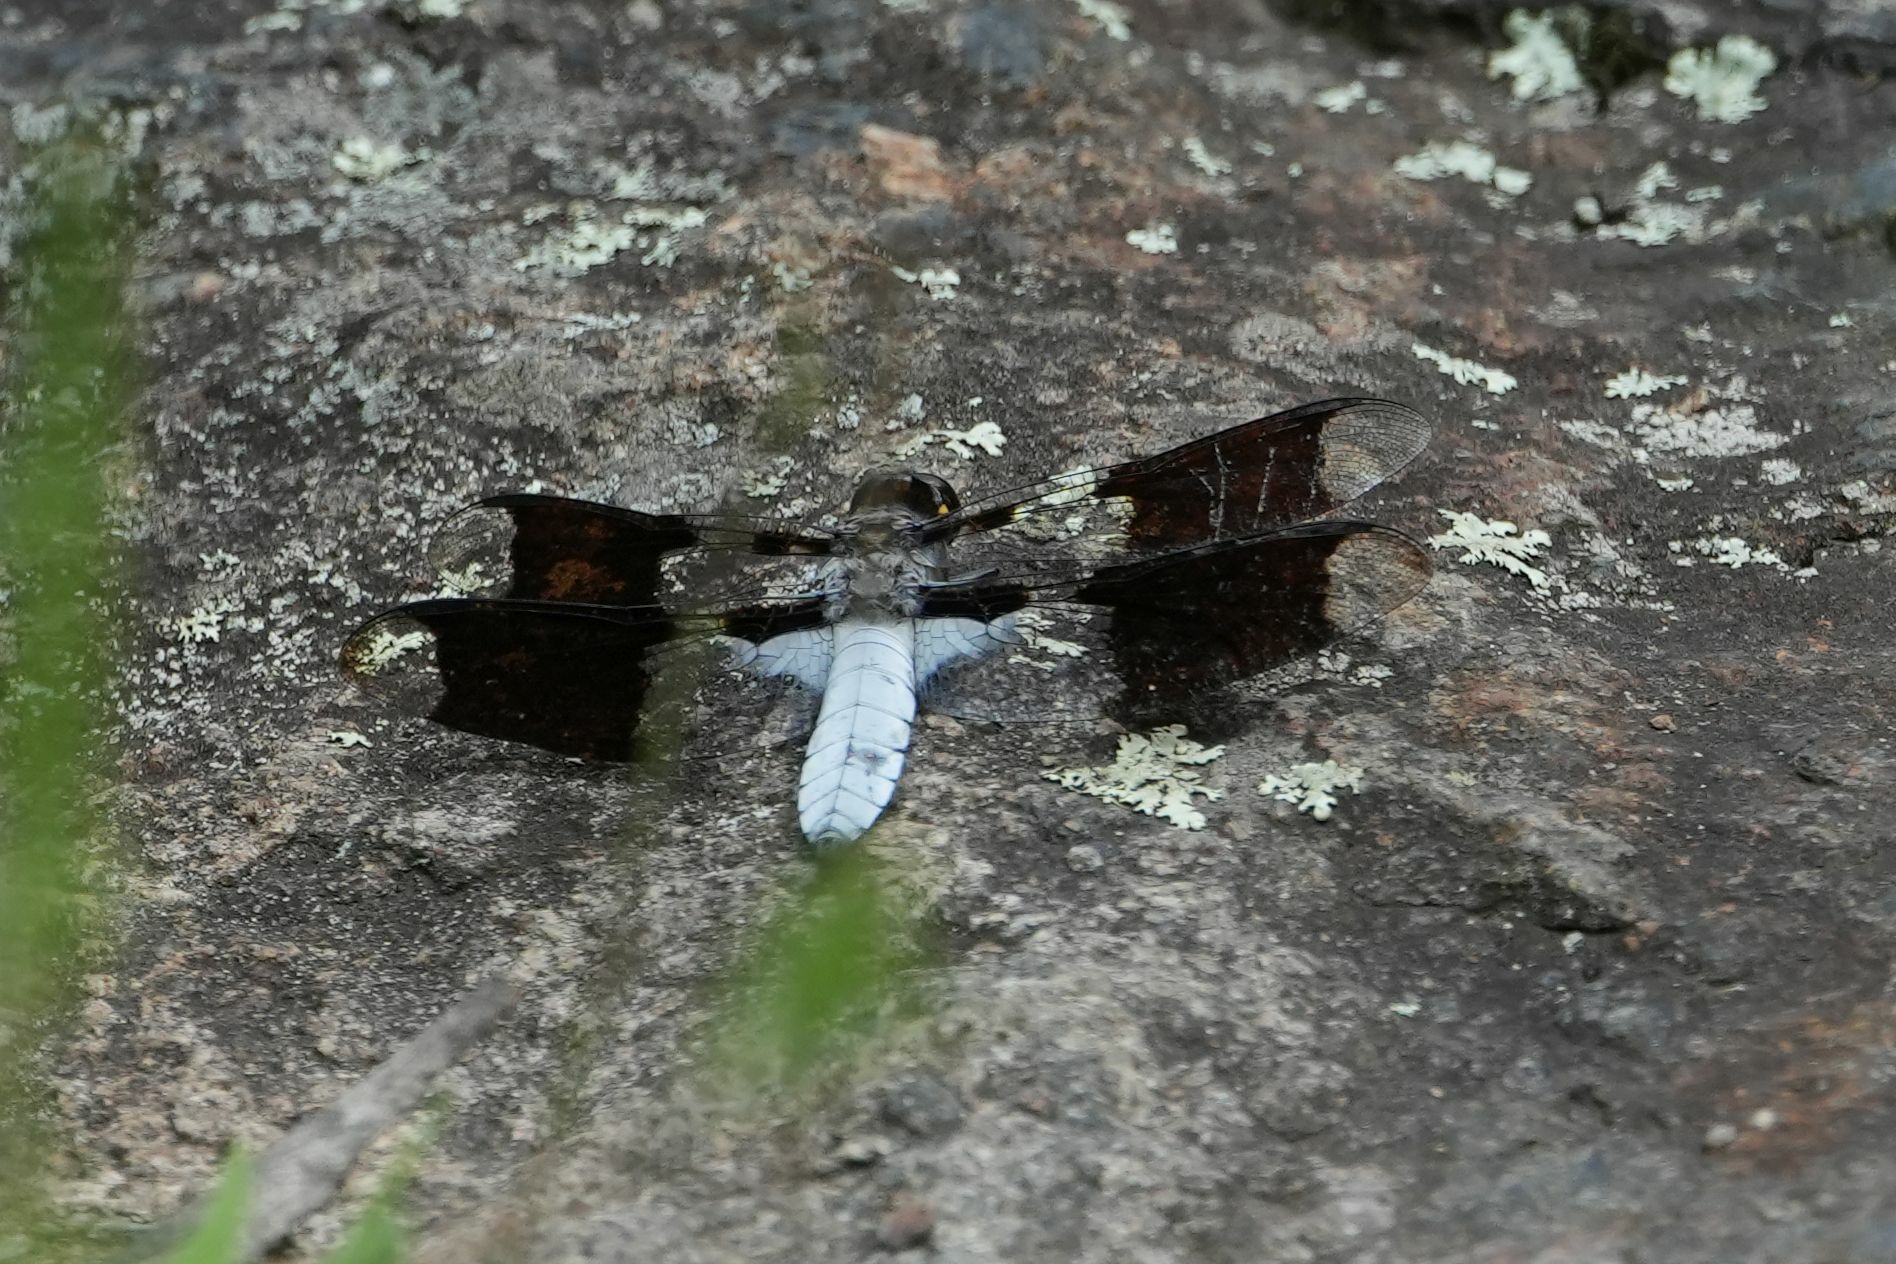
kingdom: Animalia
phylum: Arthropoda
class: Insecta
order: Odonata
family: Libellulidae
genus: Plathemis
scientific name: Plathemis lydia
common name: Common whitetail
